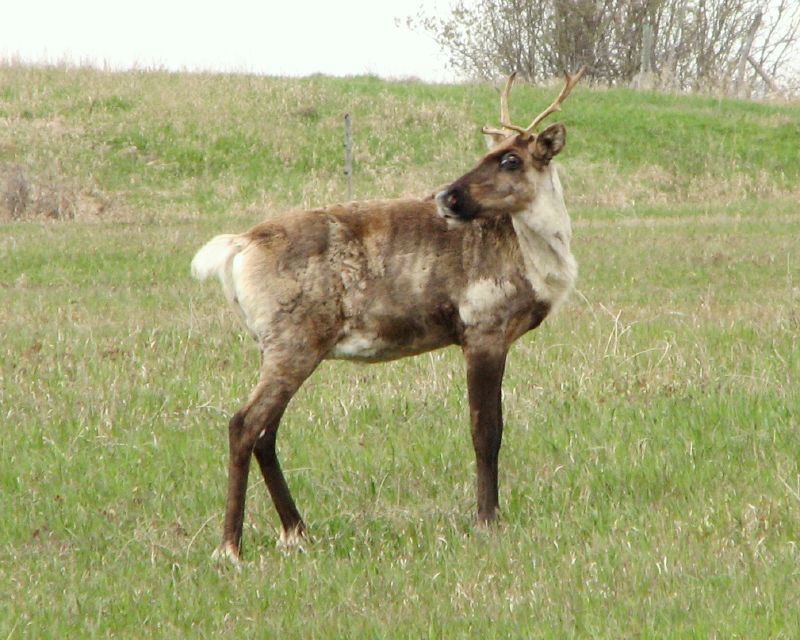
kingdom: Animalia
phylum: Chordata
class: Mammalia
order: Artiodactyla
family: Cervidae
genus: Rangifer
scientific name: Rangifer tarandus
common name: Reindeer
